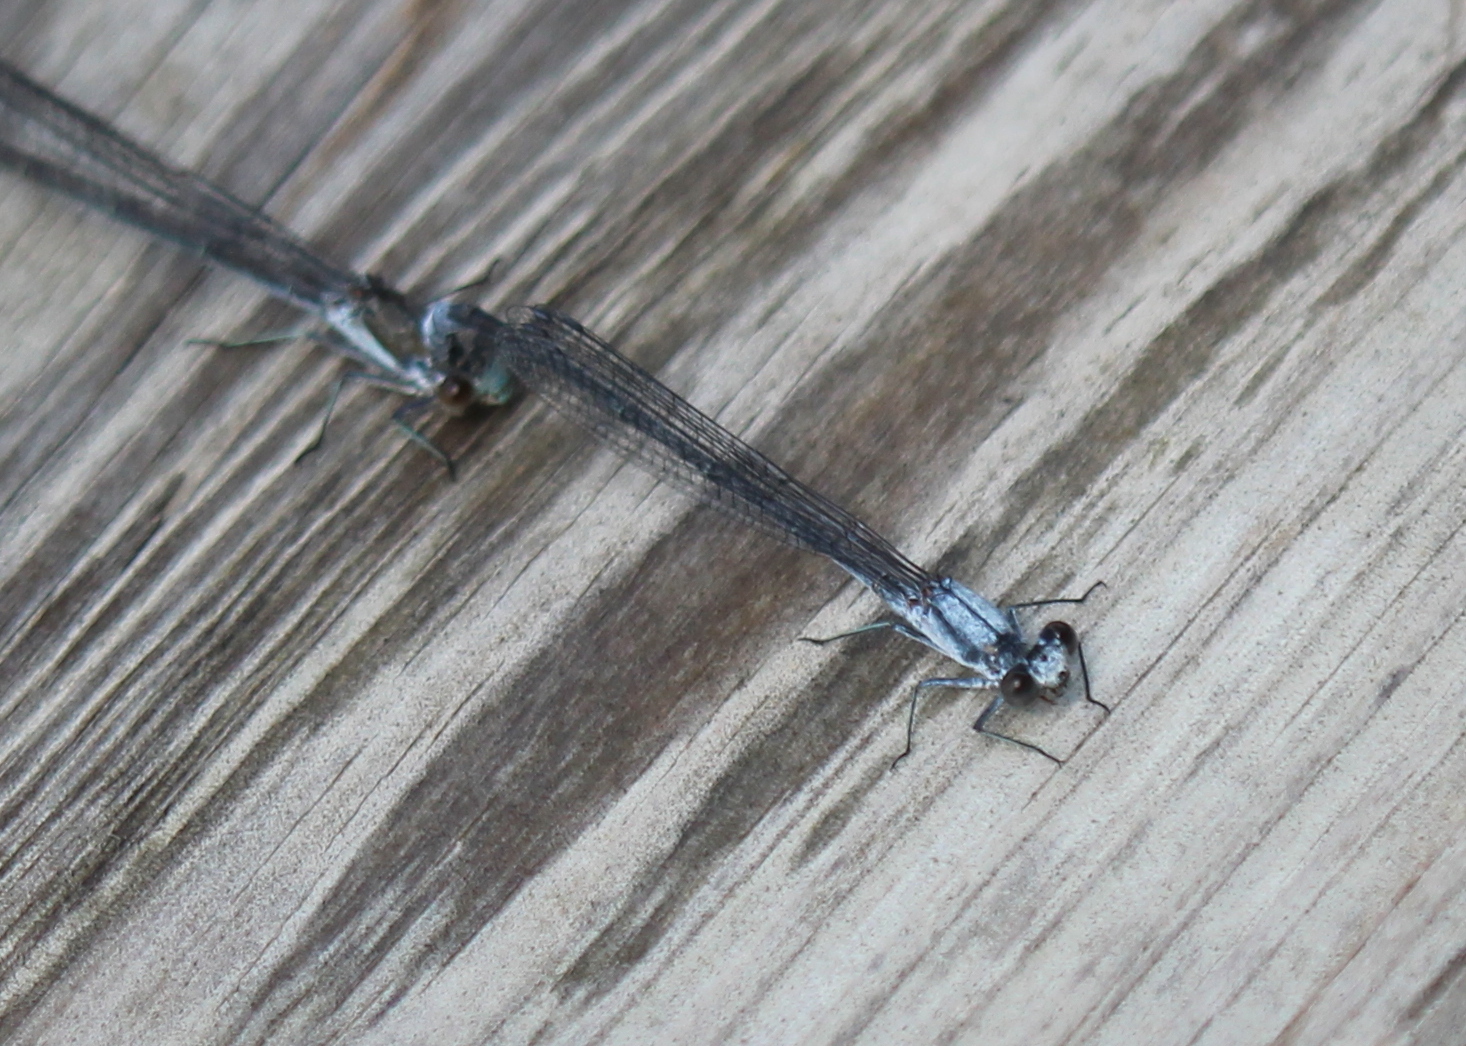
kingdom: Animalia
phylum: Arthropoda
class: Insecta
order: Odonata
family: Coenagrionidae
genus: Argia
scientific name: Argia moesta
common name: Powdered dancer
